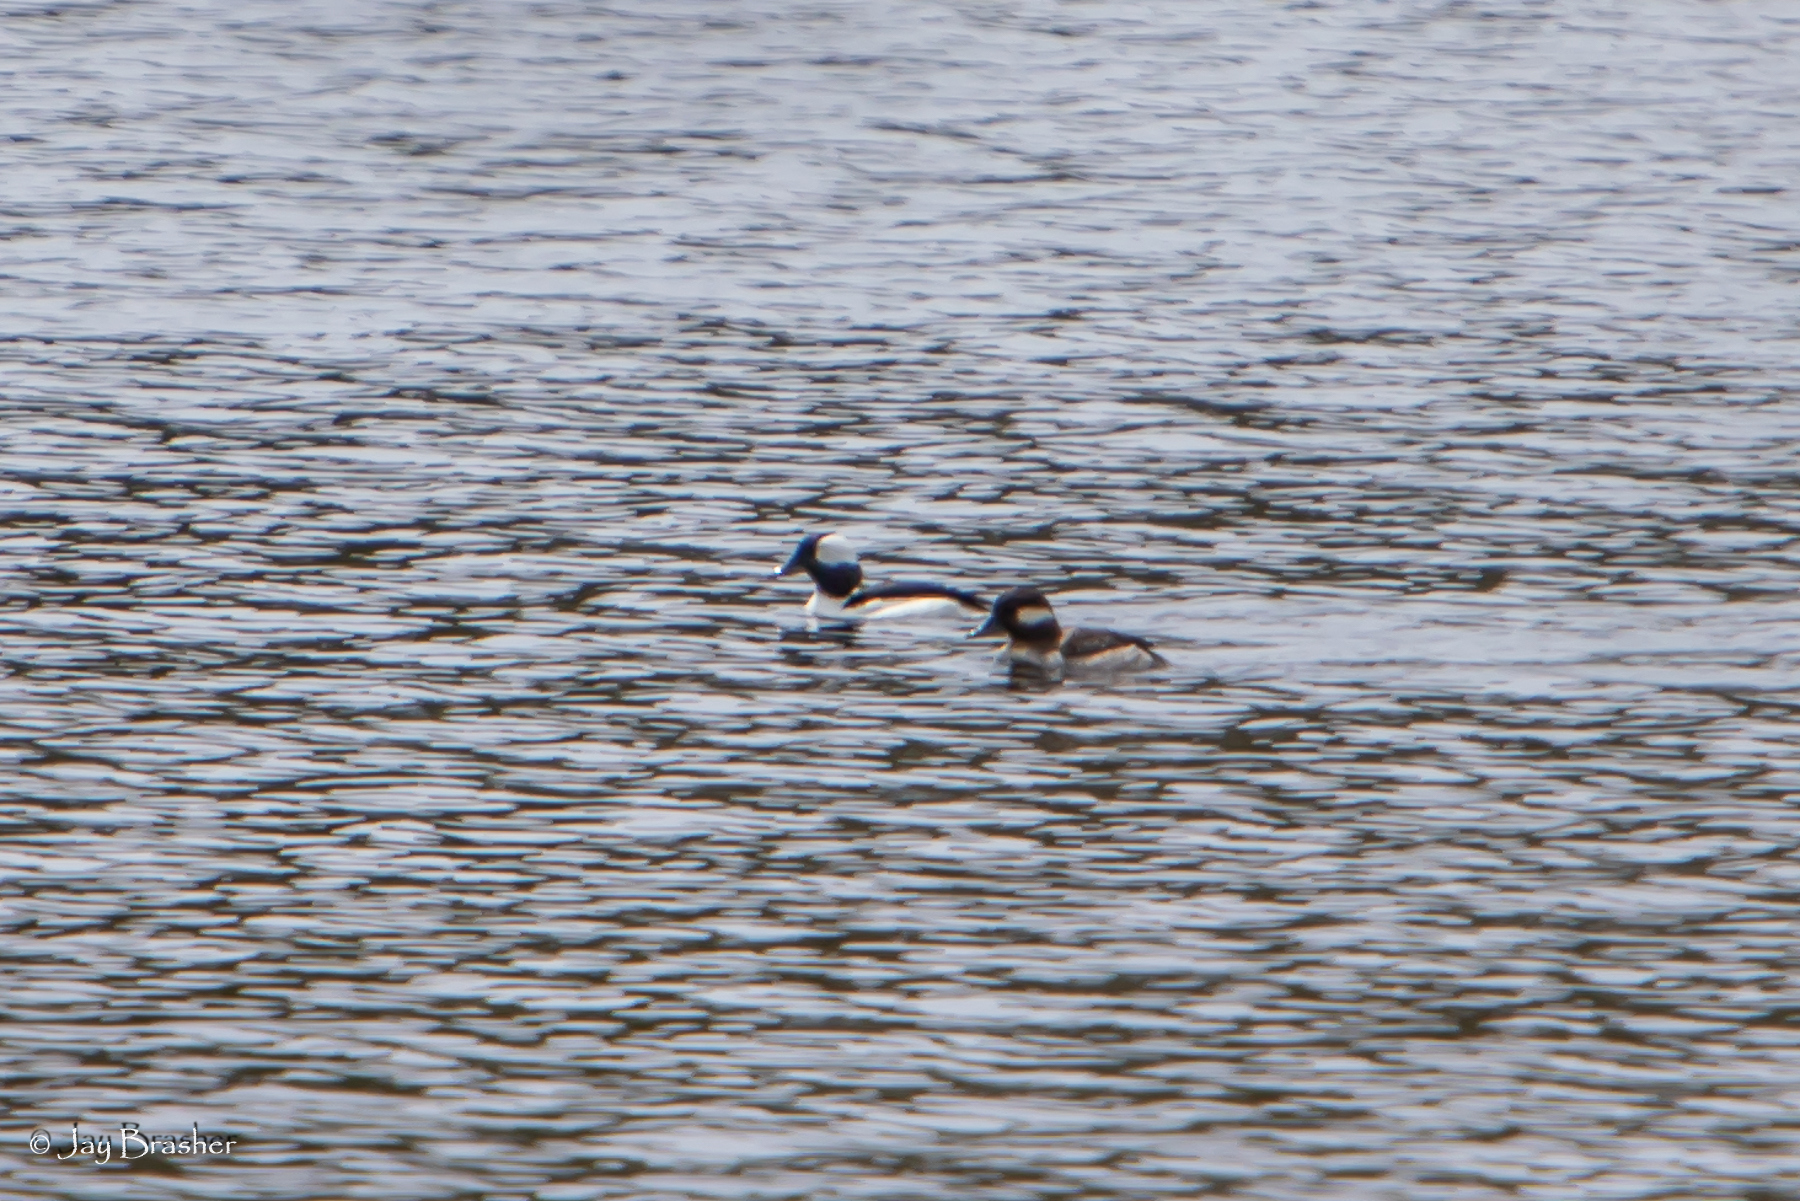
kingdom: Animalia
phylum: Chordata
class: Aves
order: Anseriformes
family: Anatidae
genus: Bucephala
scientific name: Bucephala albeola
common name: Bufflehead
